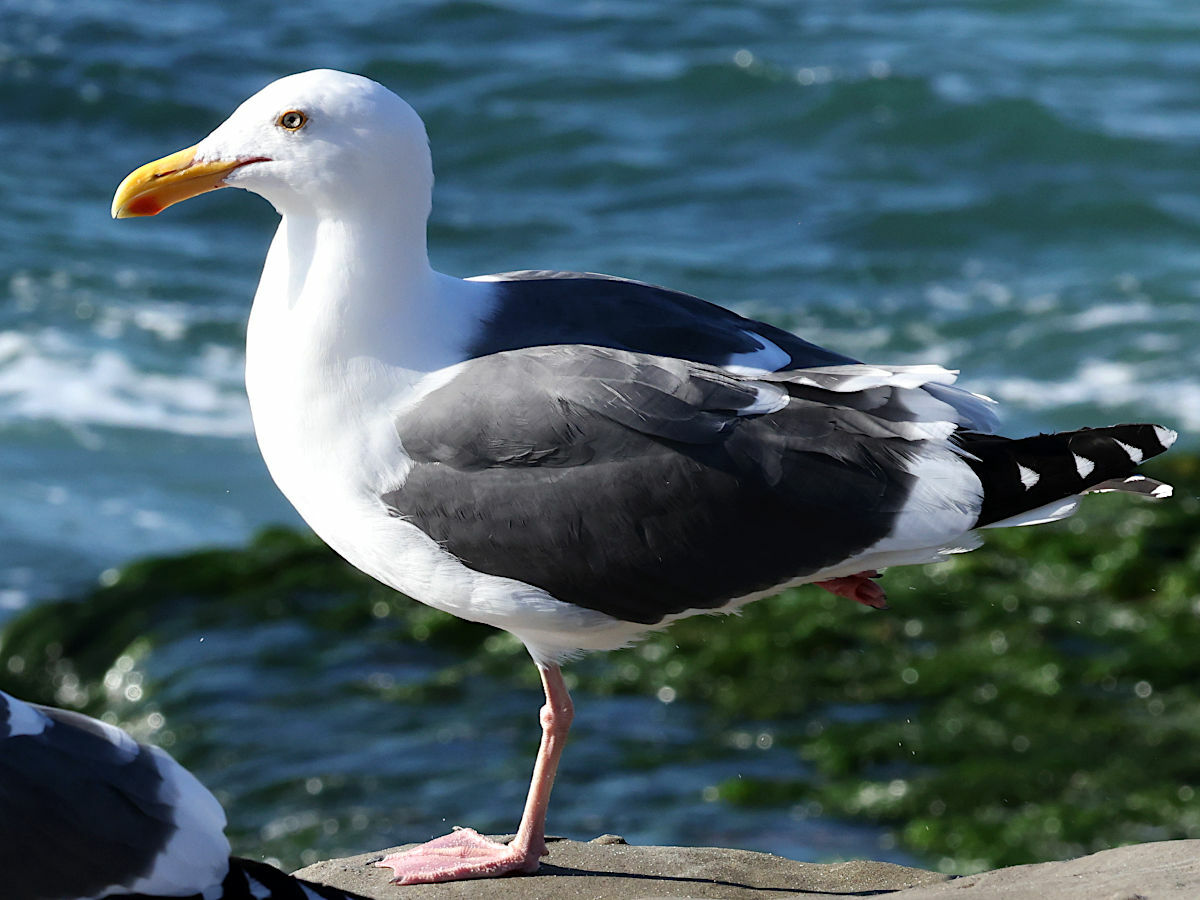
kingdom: Animalia
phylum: Chordata
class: Aves
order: Charadriiformes
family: Laridae
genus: Larus
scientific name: Larus occidentalis
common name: Western gull
